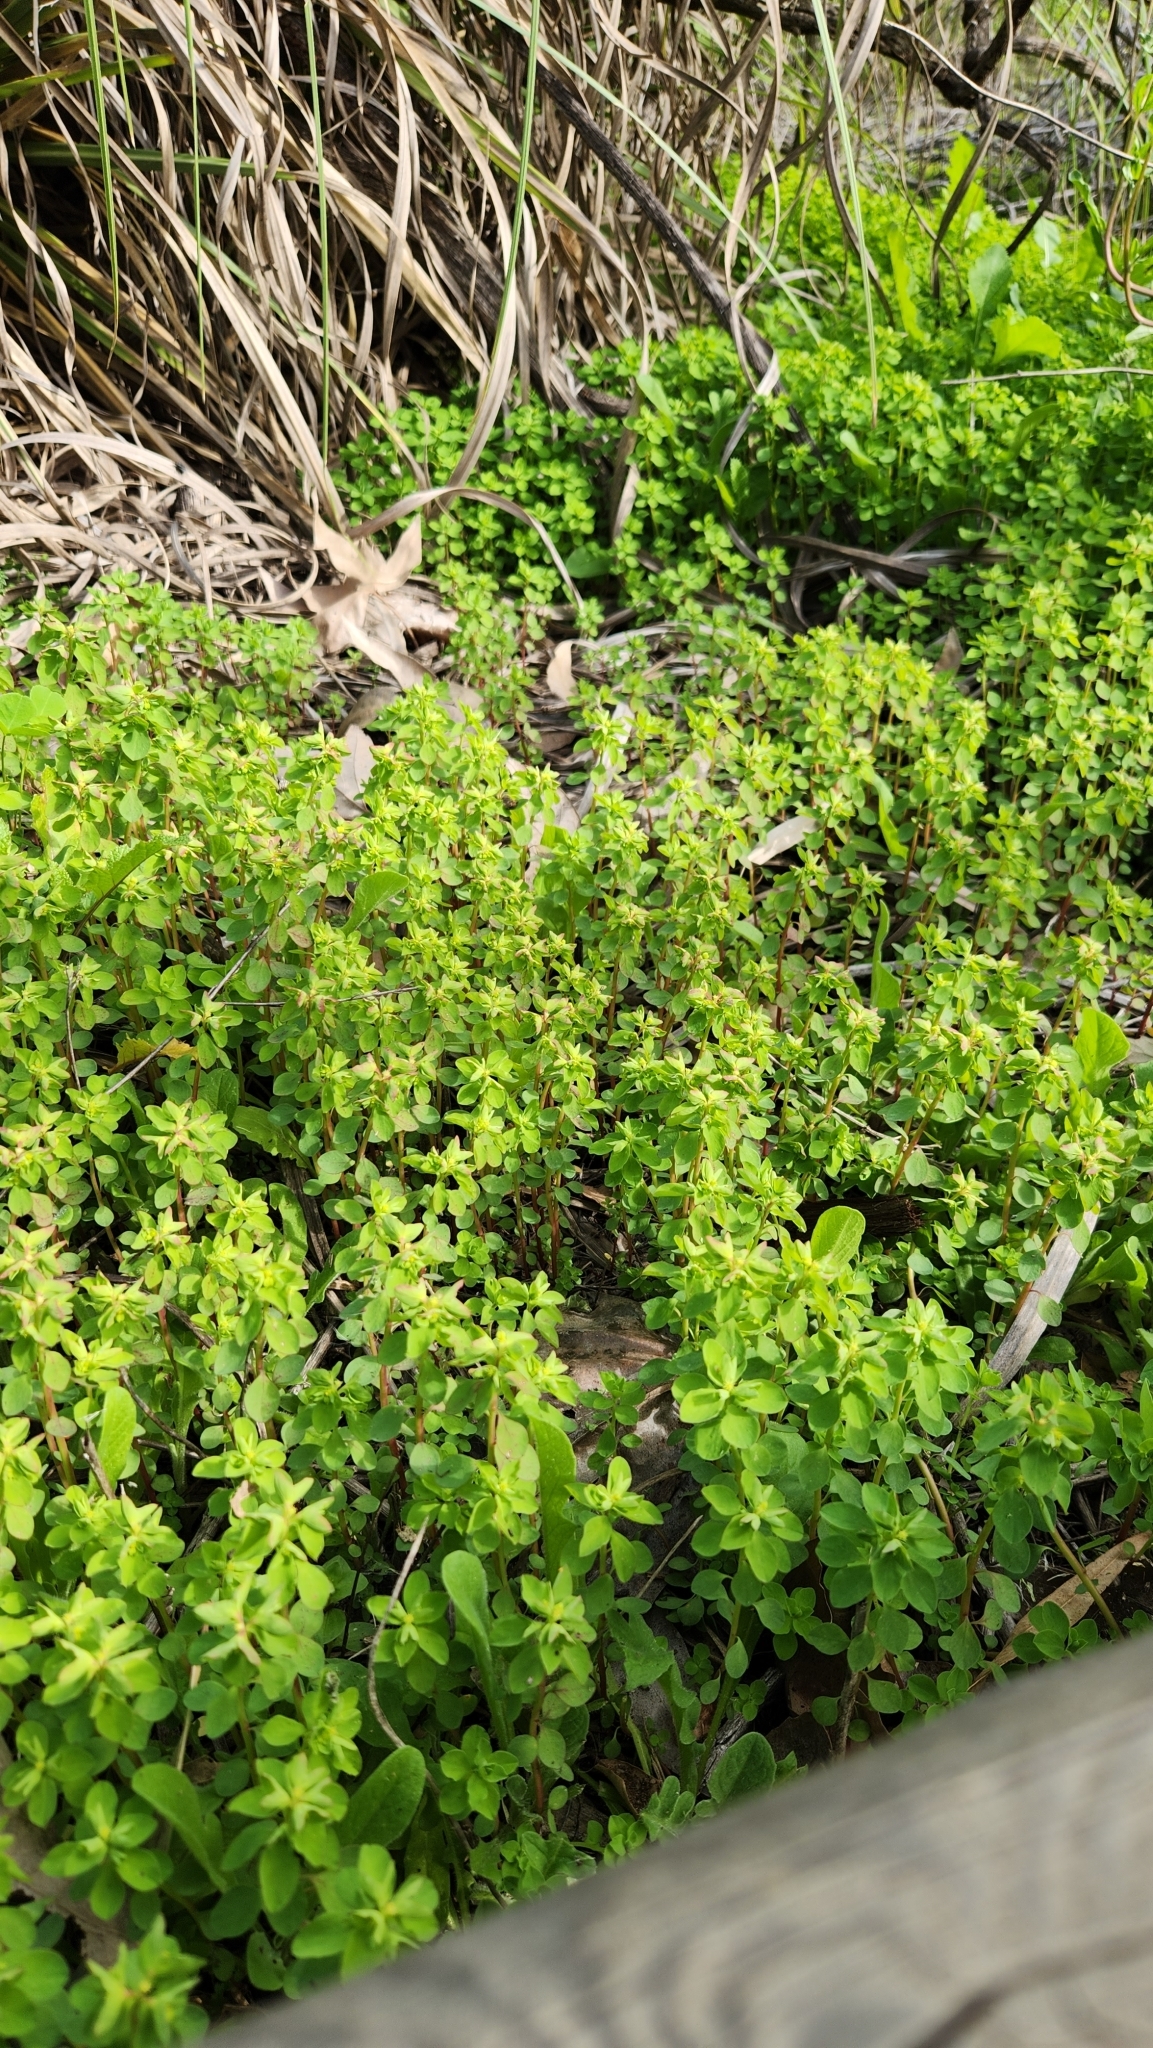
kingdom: Plantae
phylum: Tracheophyta
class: Magnoliopsida
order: Malpighiales
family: Euphorbiaceae
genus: Euphorbia
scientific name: Euphorbia peplus
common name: Petty spurge
